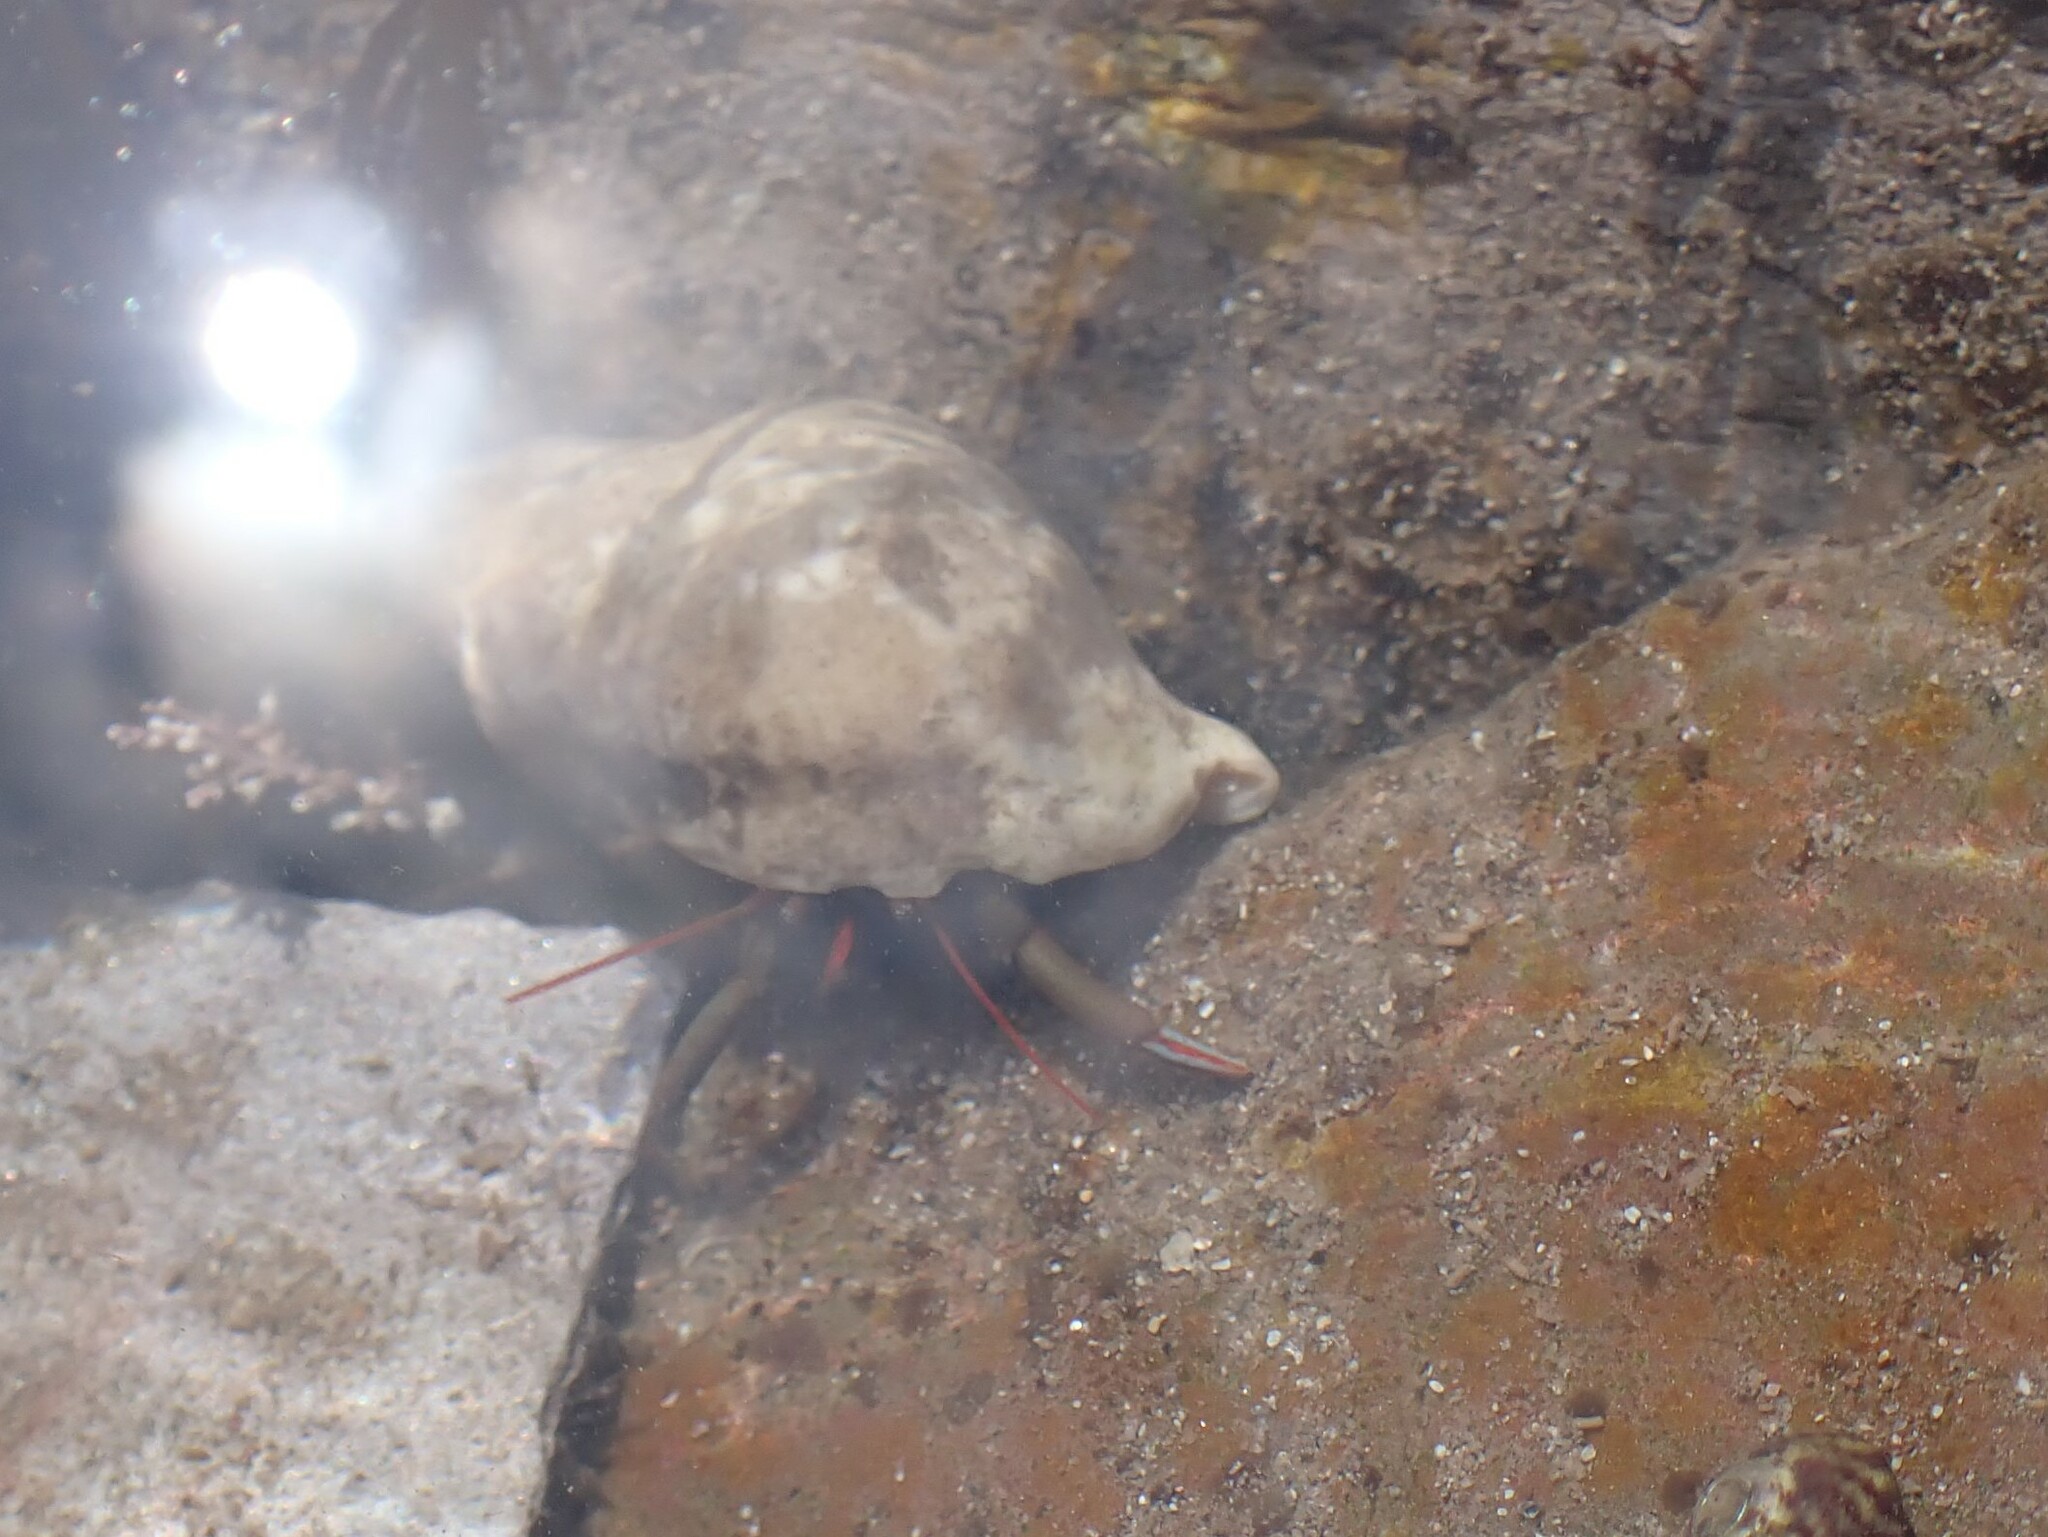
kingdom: Animalia
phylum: Arthropoda
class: Malacostraca
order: Decapoda
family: Diogenidae
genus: Clibanarius
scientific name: Clibanarius erythropus
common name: Hermit crab
